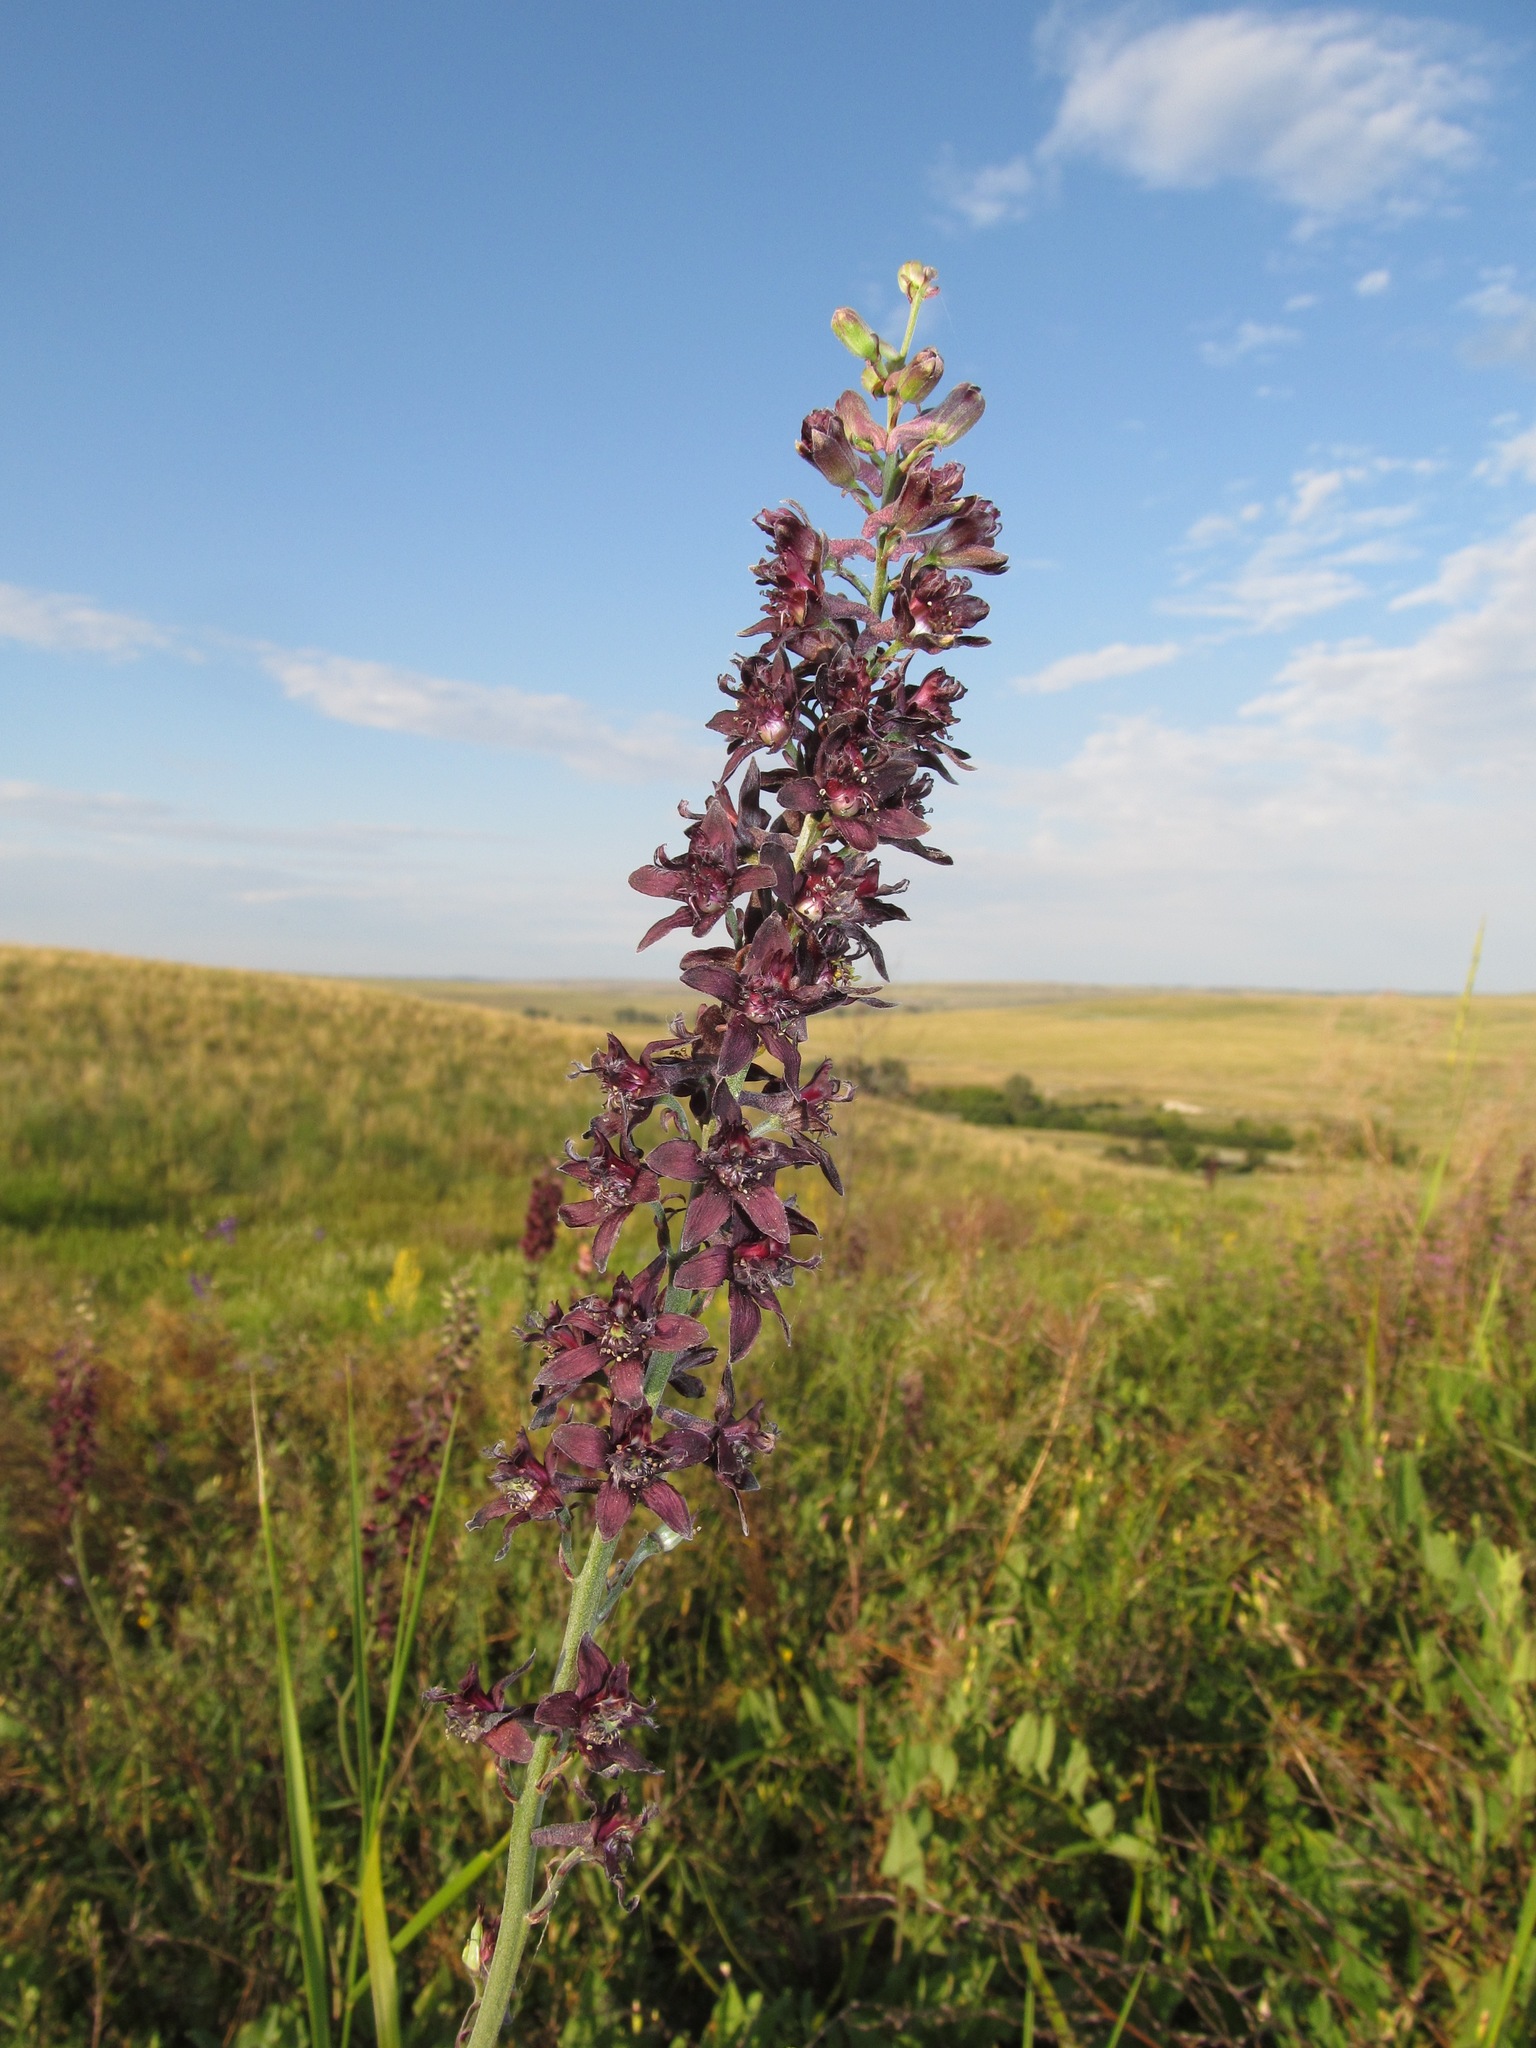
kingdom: Plantae
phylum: Tracheophyta
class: Magnoliopsida
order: Ranunculales
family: Ranunculaceae
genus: Delphinium
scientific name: Delphinium puniceum
